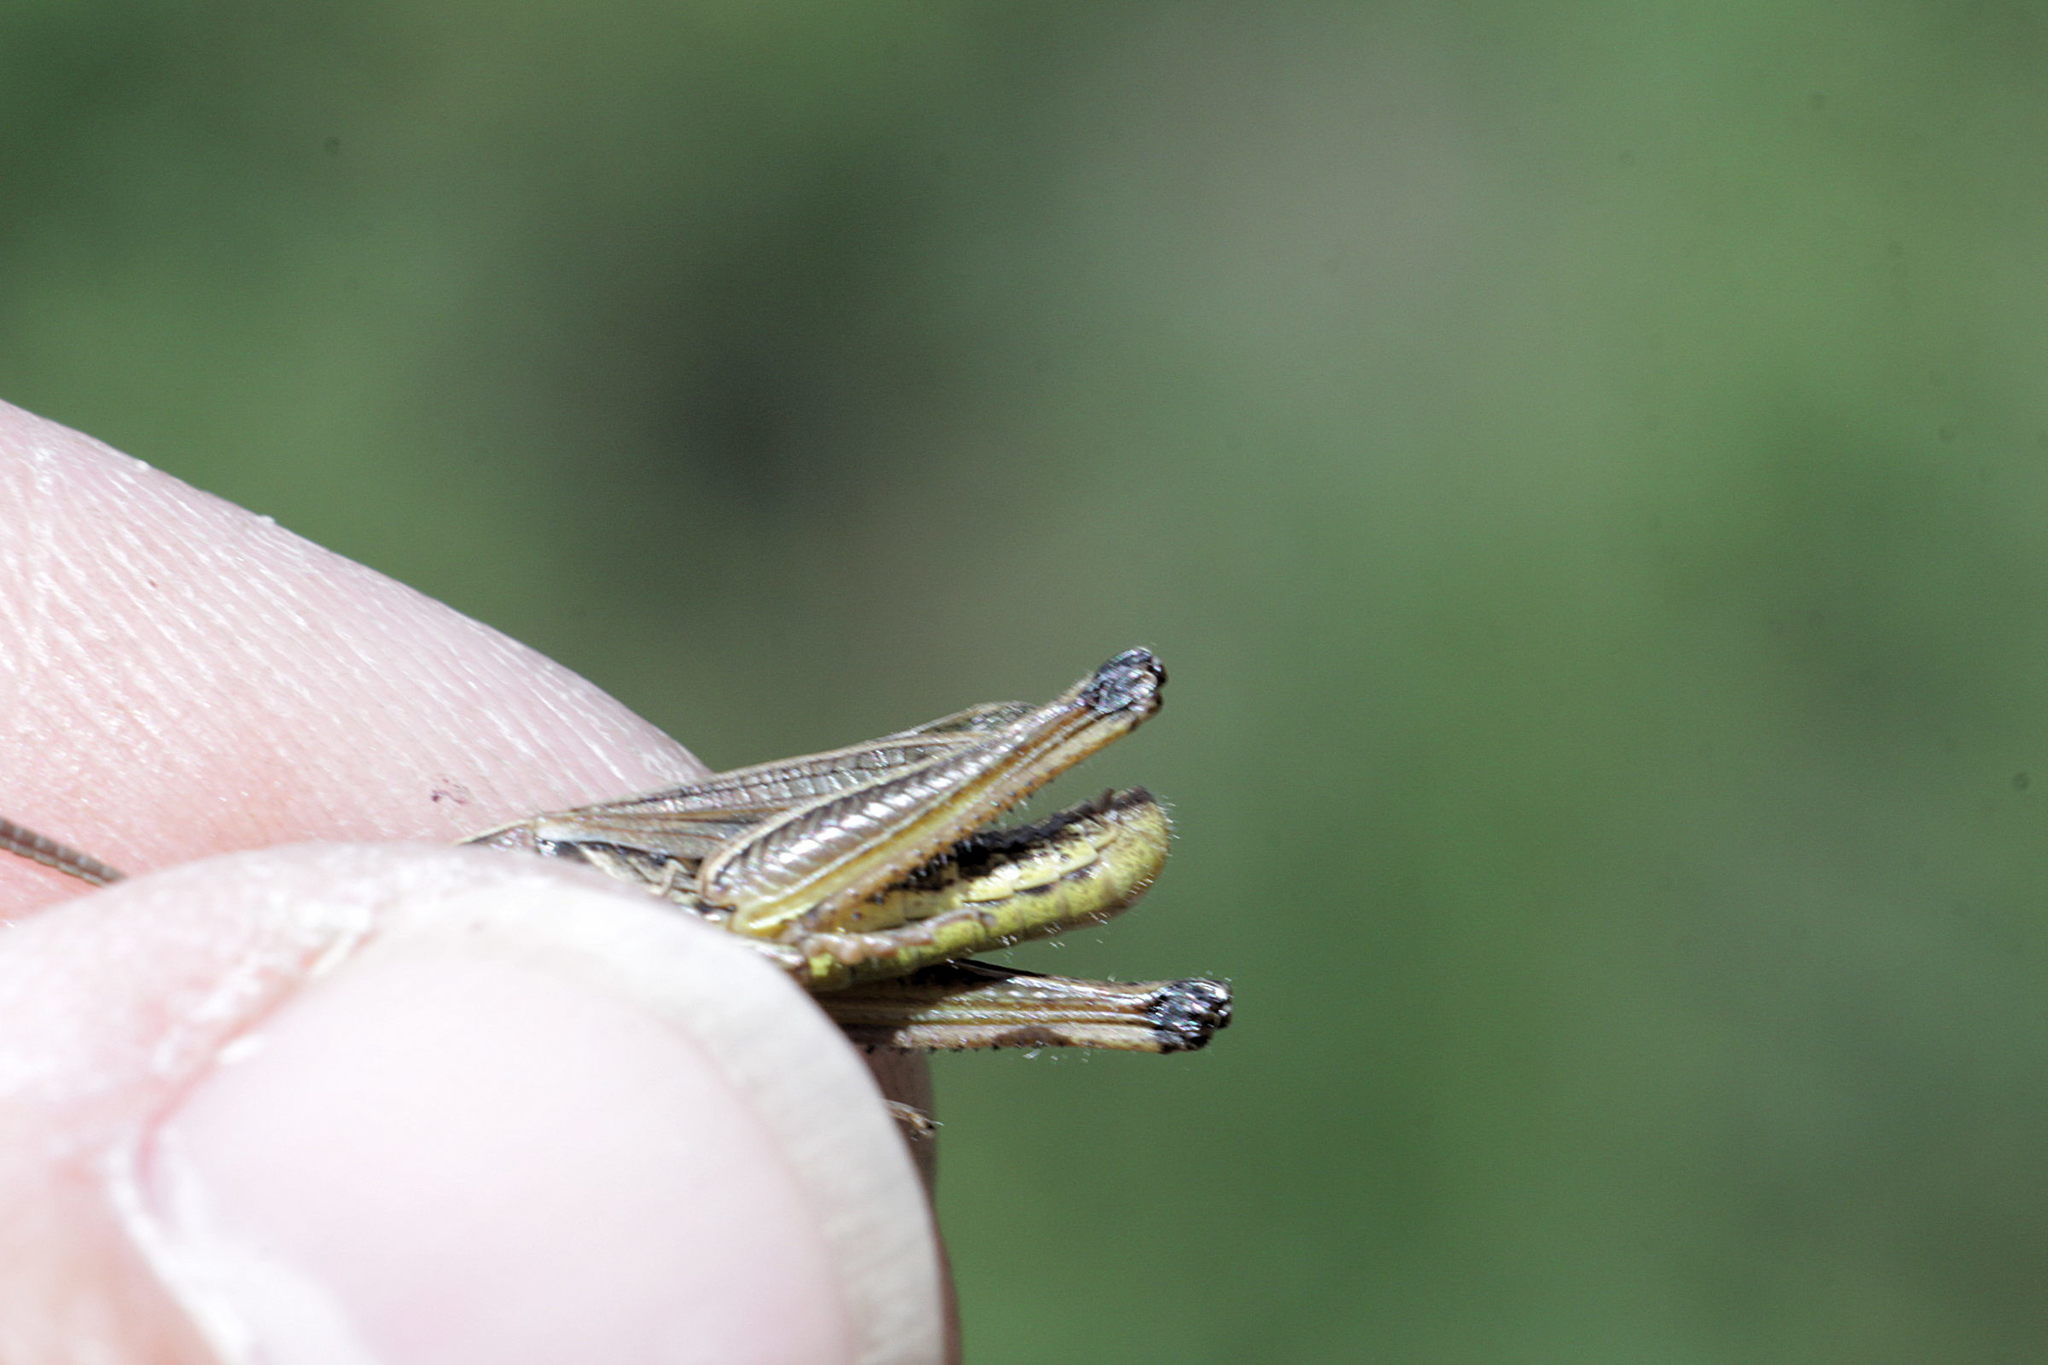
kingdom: Animalia
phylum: Arthropoda
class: Insecta
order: Orthoptera
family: Acrididae
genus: Pseudochorthippus
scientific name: Pseudochorthippus parallelus
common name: Meadow grasshopper
